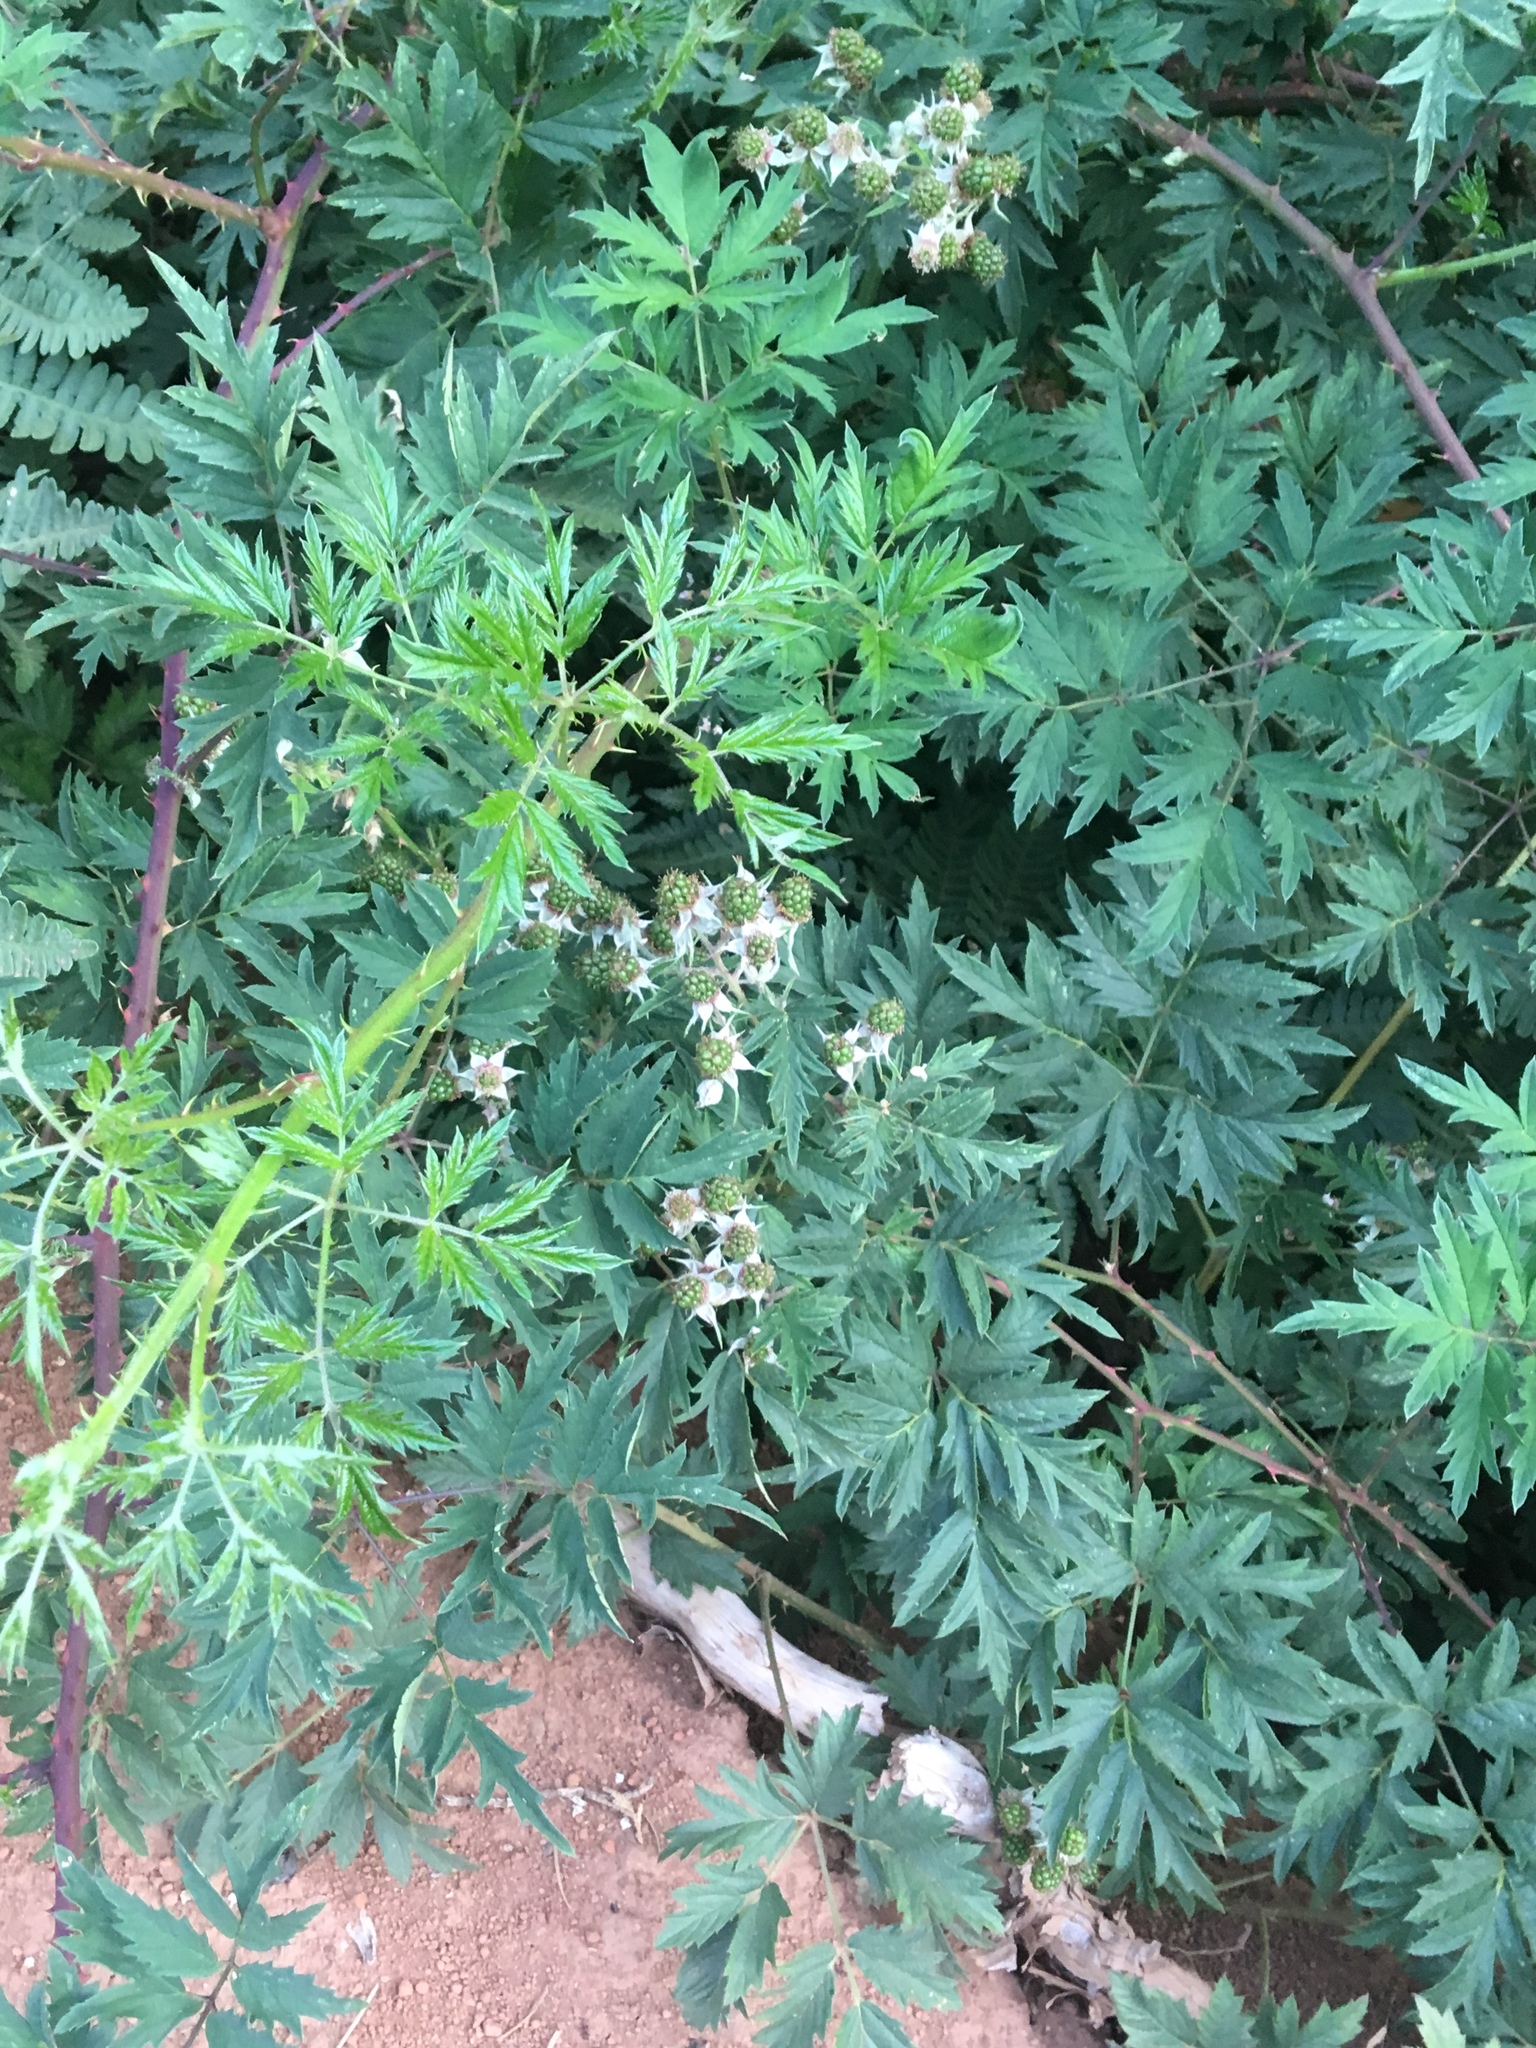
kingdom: Plantae
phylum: Tracheophyta
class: Magnoliopsida
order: Rosales
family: Rosaceae
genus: Rubus
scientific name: Rubus laciniatus
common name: Evergreen blackberry
